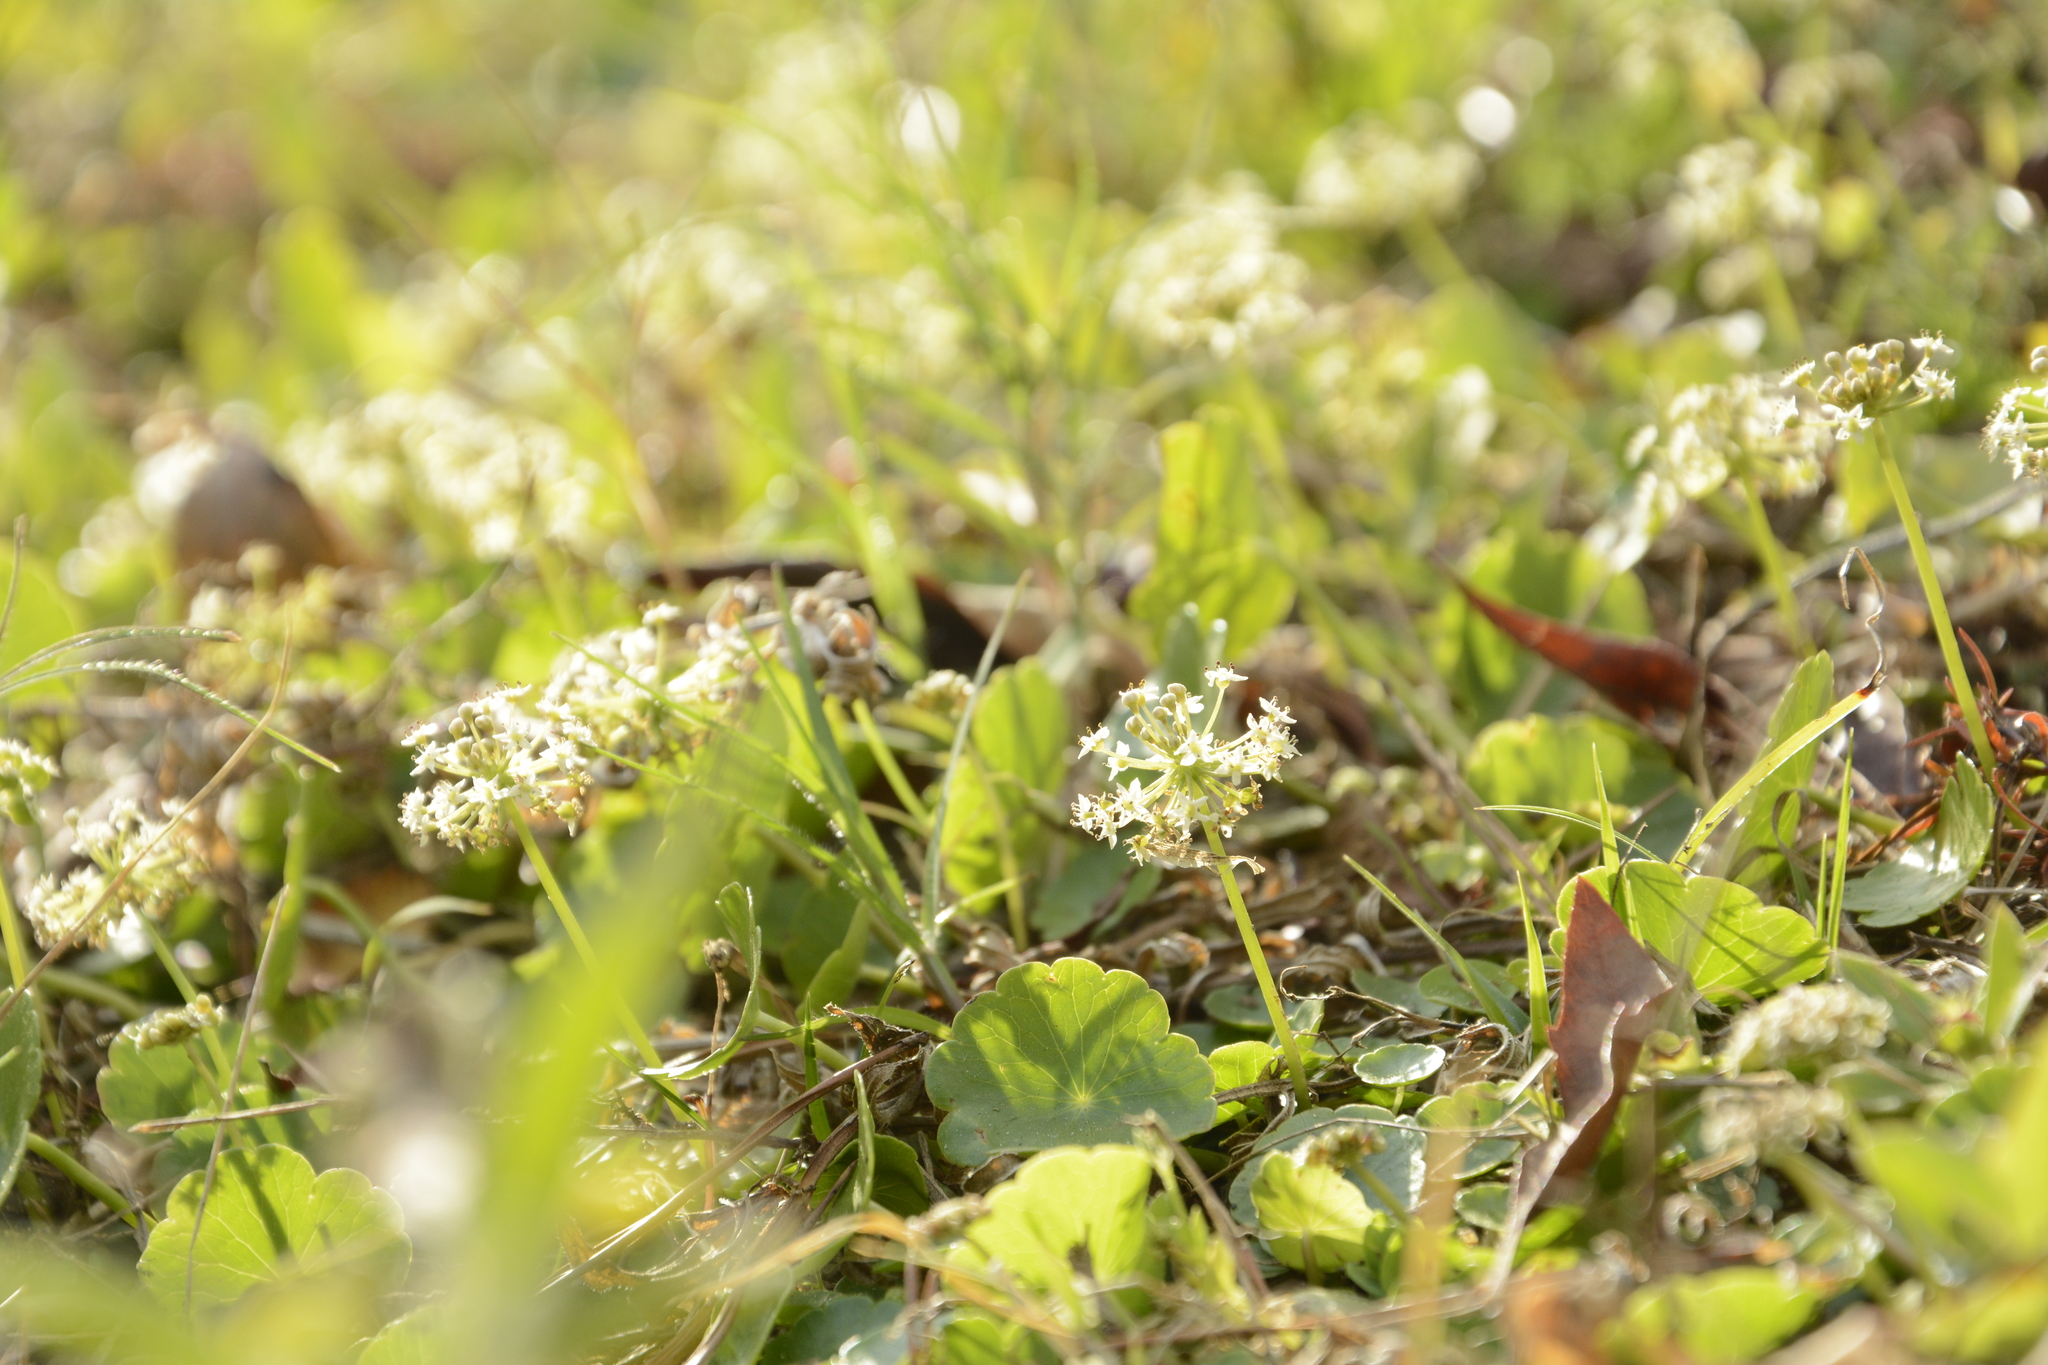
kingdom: Plantae
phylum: Tracheophyta
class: Magnoliopsida
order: Apiales
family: Araliaceae
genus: Hydrocotyle
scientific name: Hydrocotyle umbellata
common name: Water pennywort
